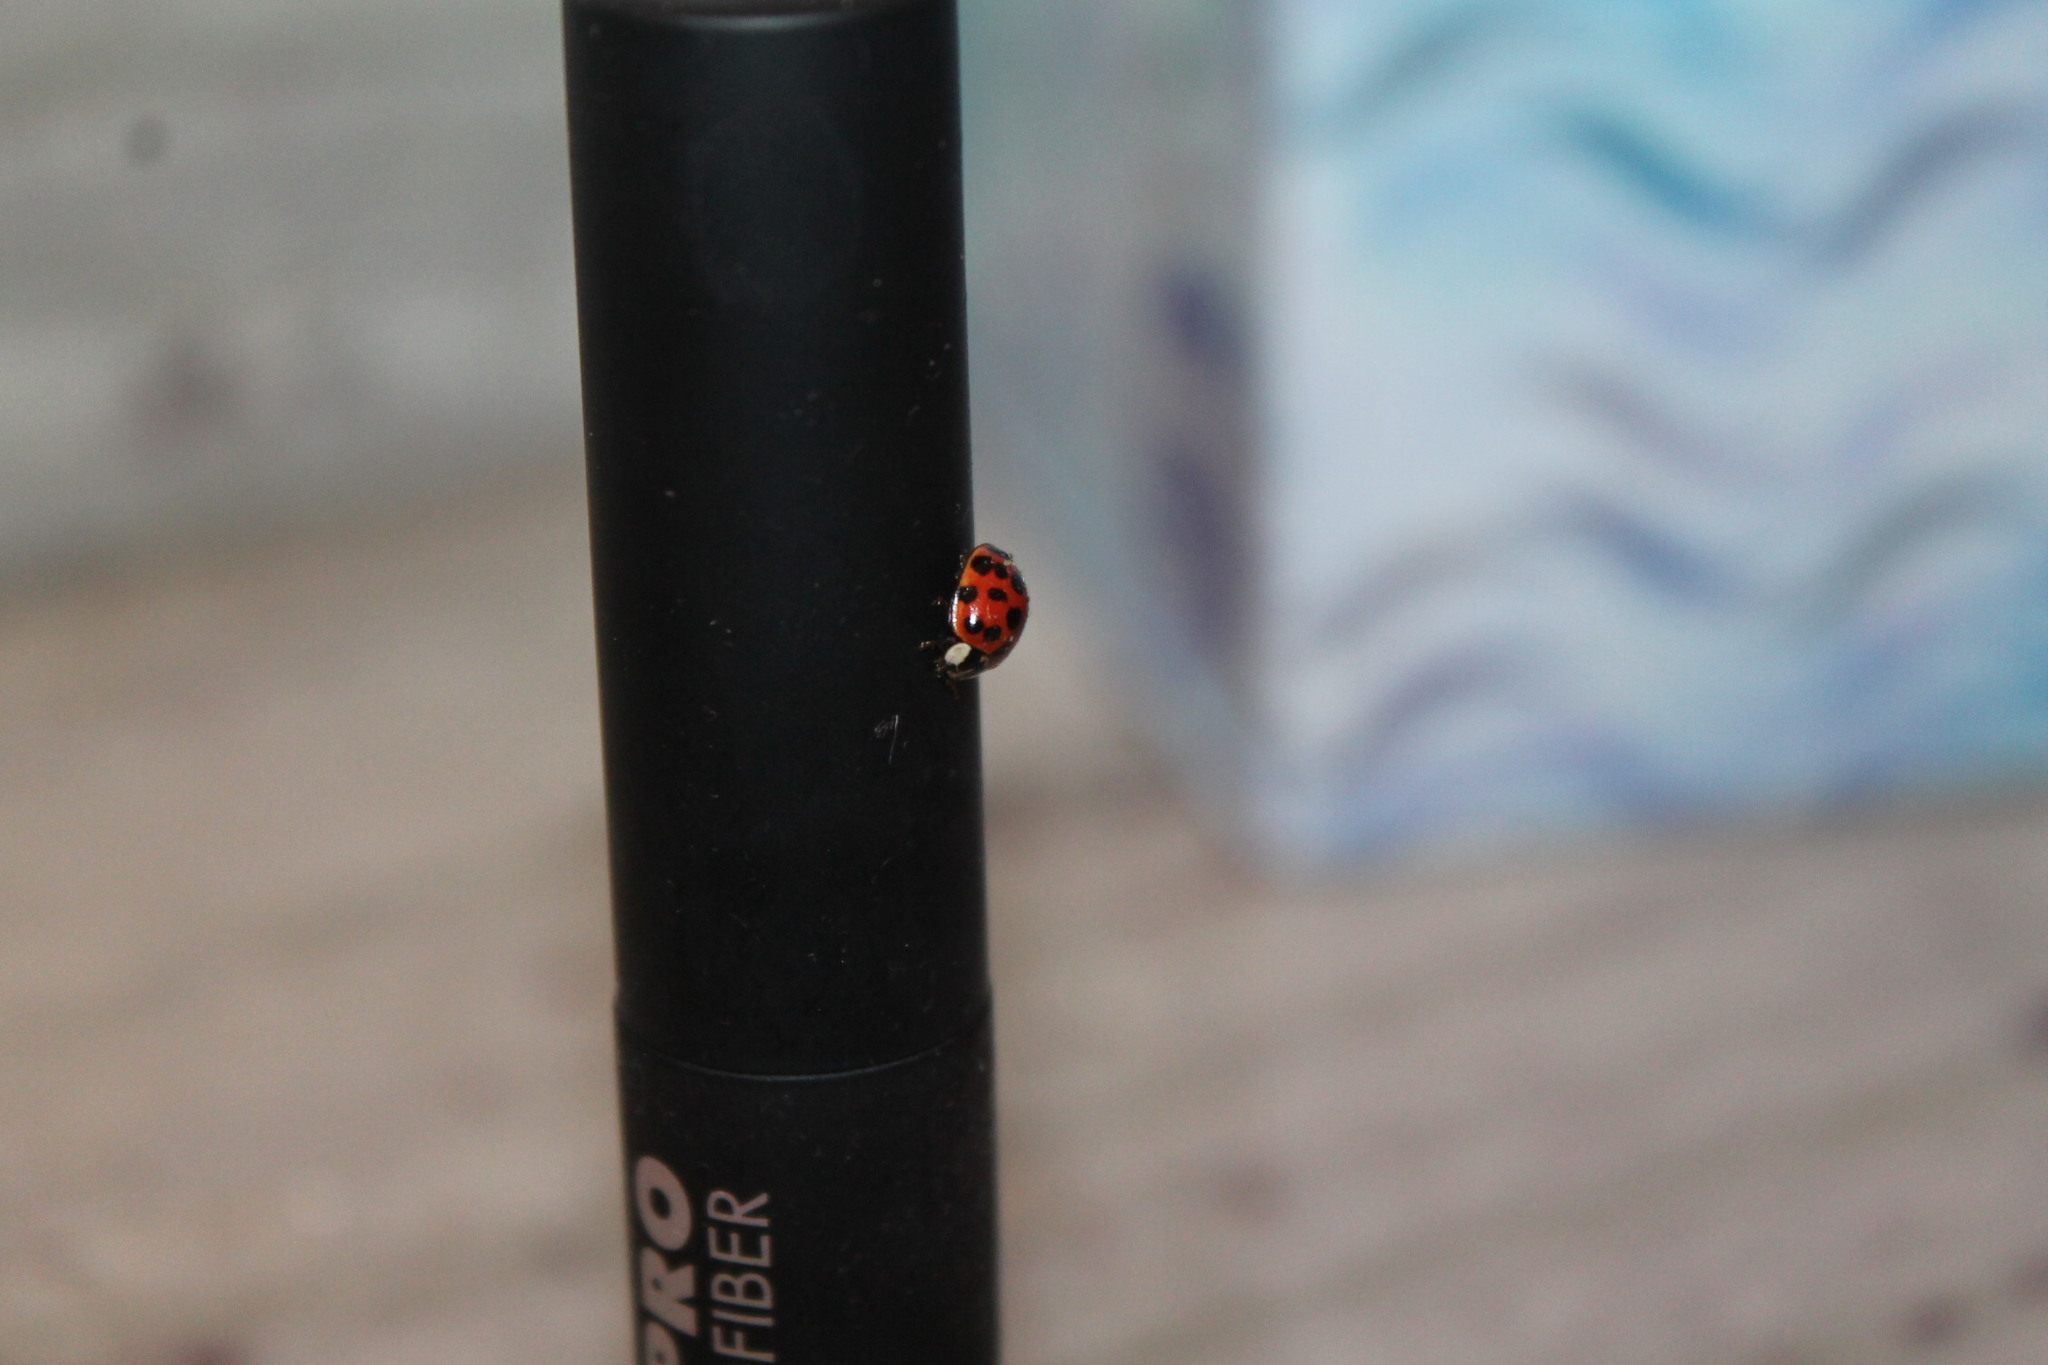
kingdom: Animalia
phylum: Arthropoda
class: Insecta
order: Coleoptera
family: Coccinellidae
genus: Harmonia
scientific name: Harmonia axyridis
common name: Harlequin ladybird
